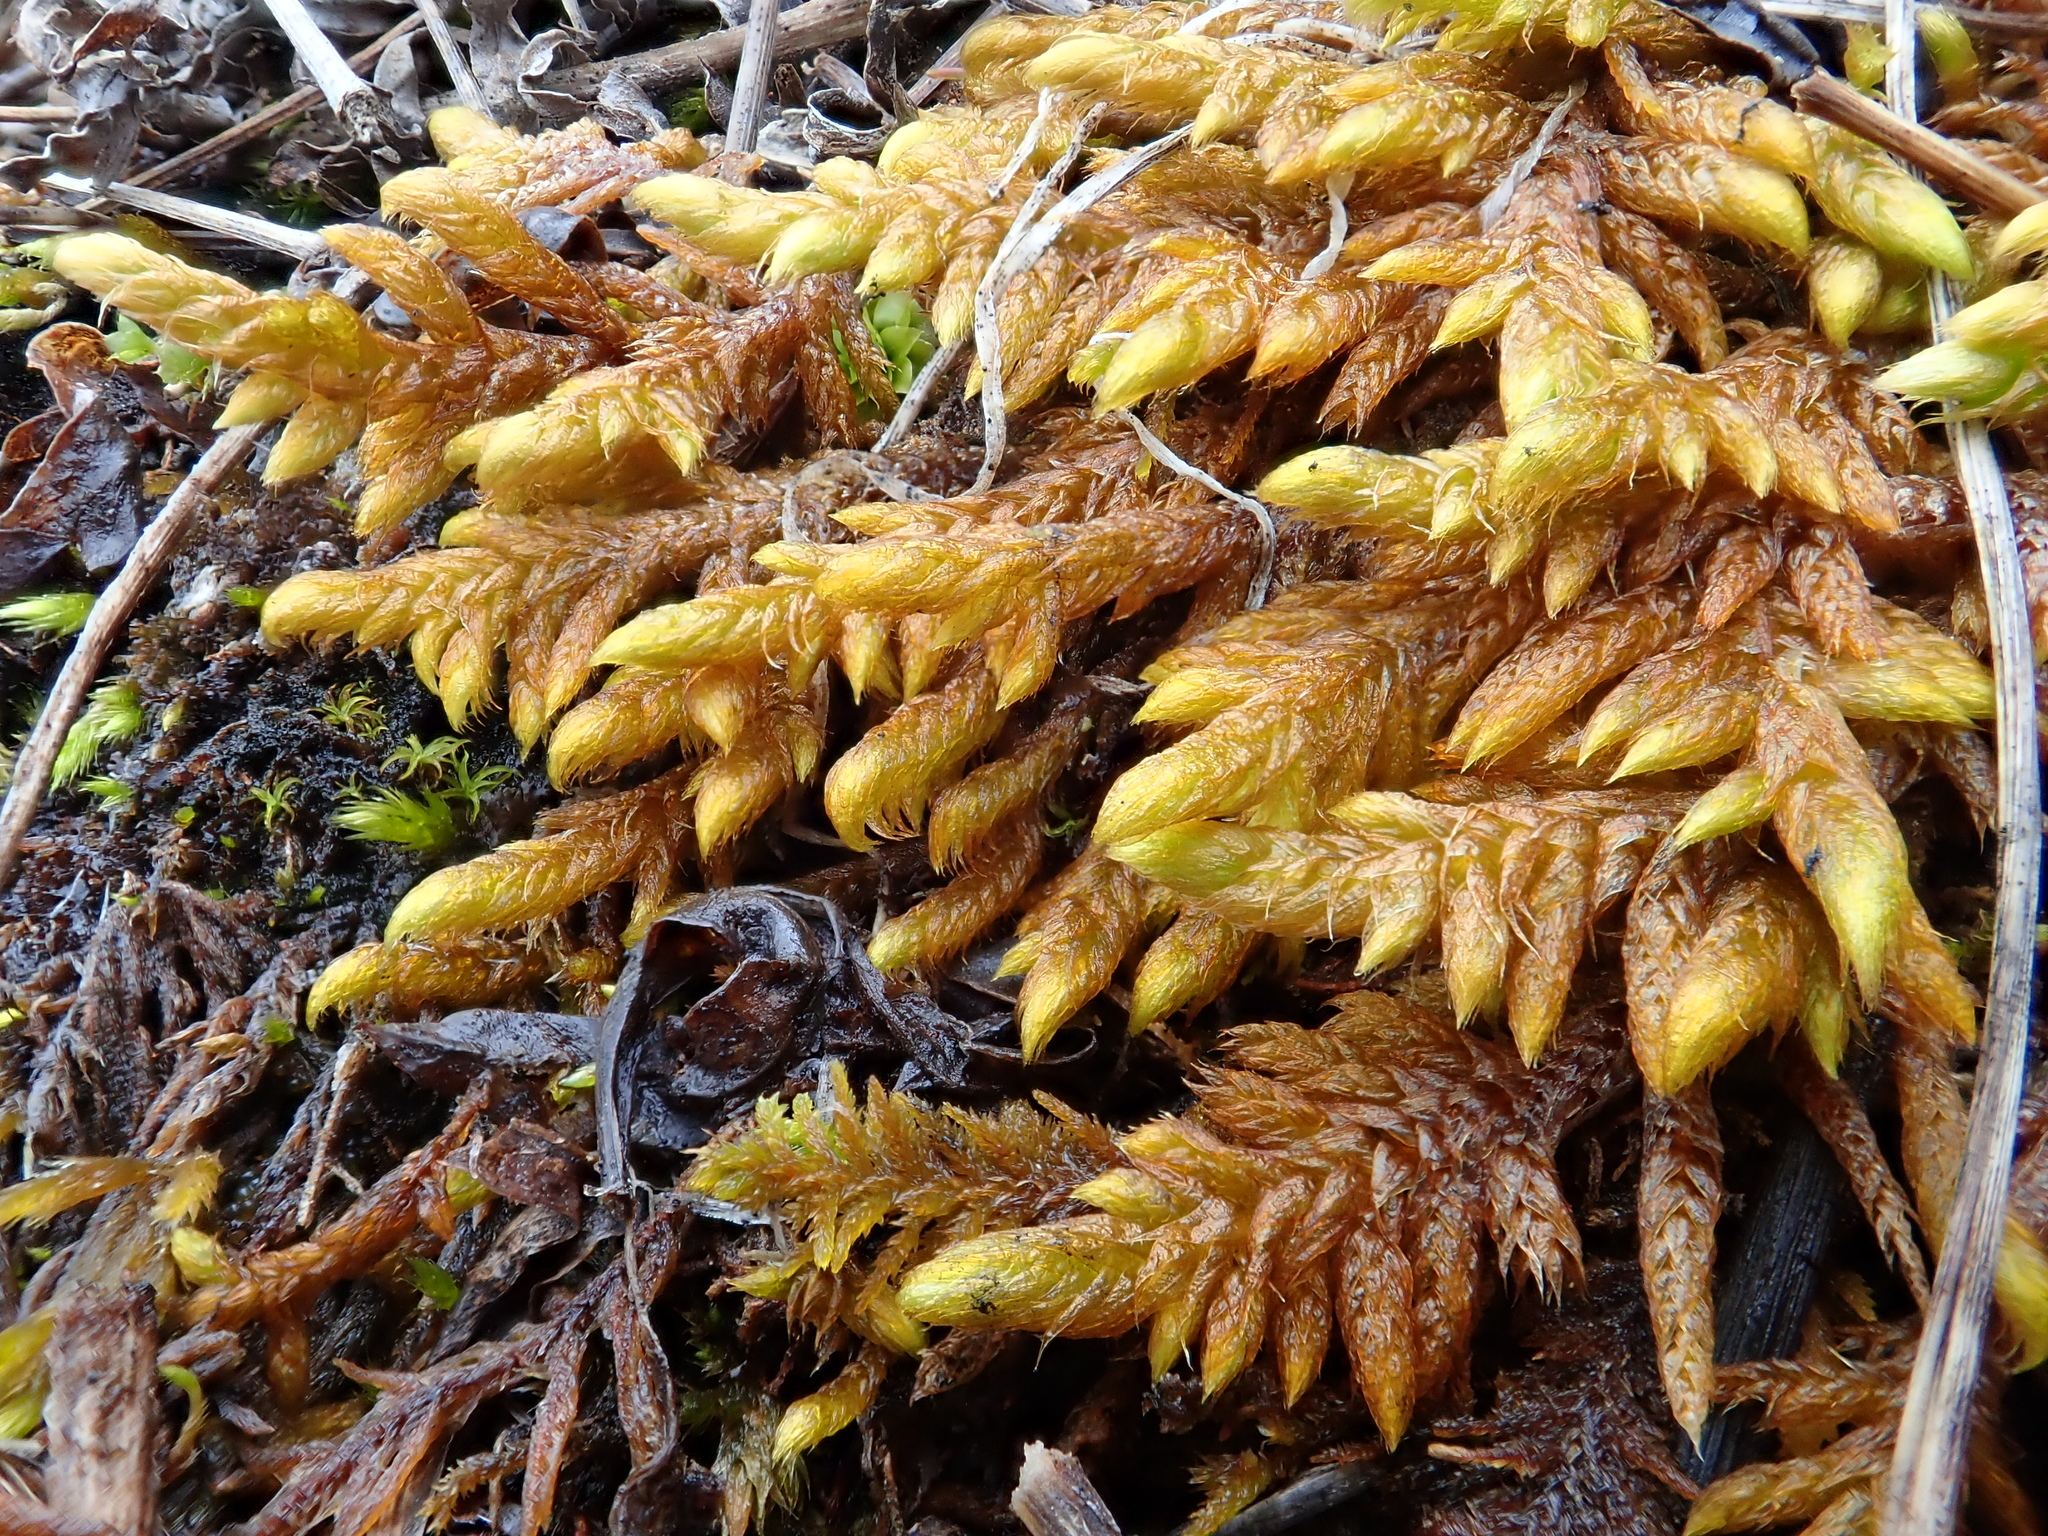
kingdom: Plantae
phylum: Bryophyta
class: Bryopsida
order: Hypnales
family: Rhytidiaceae
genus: Rhytidium
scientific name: Rhytidium rugosum
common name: Wrinkle-leaved moss
